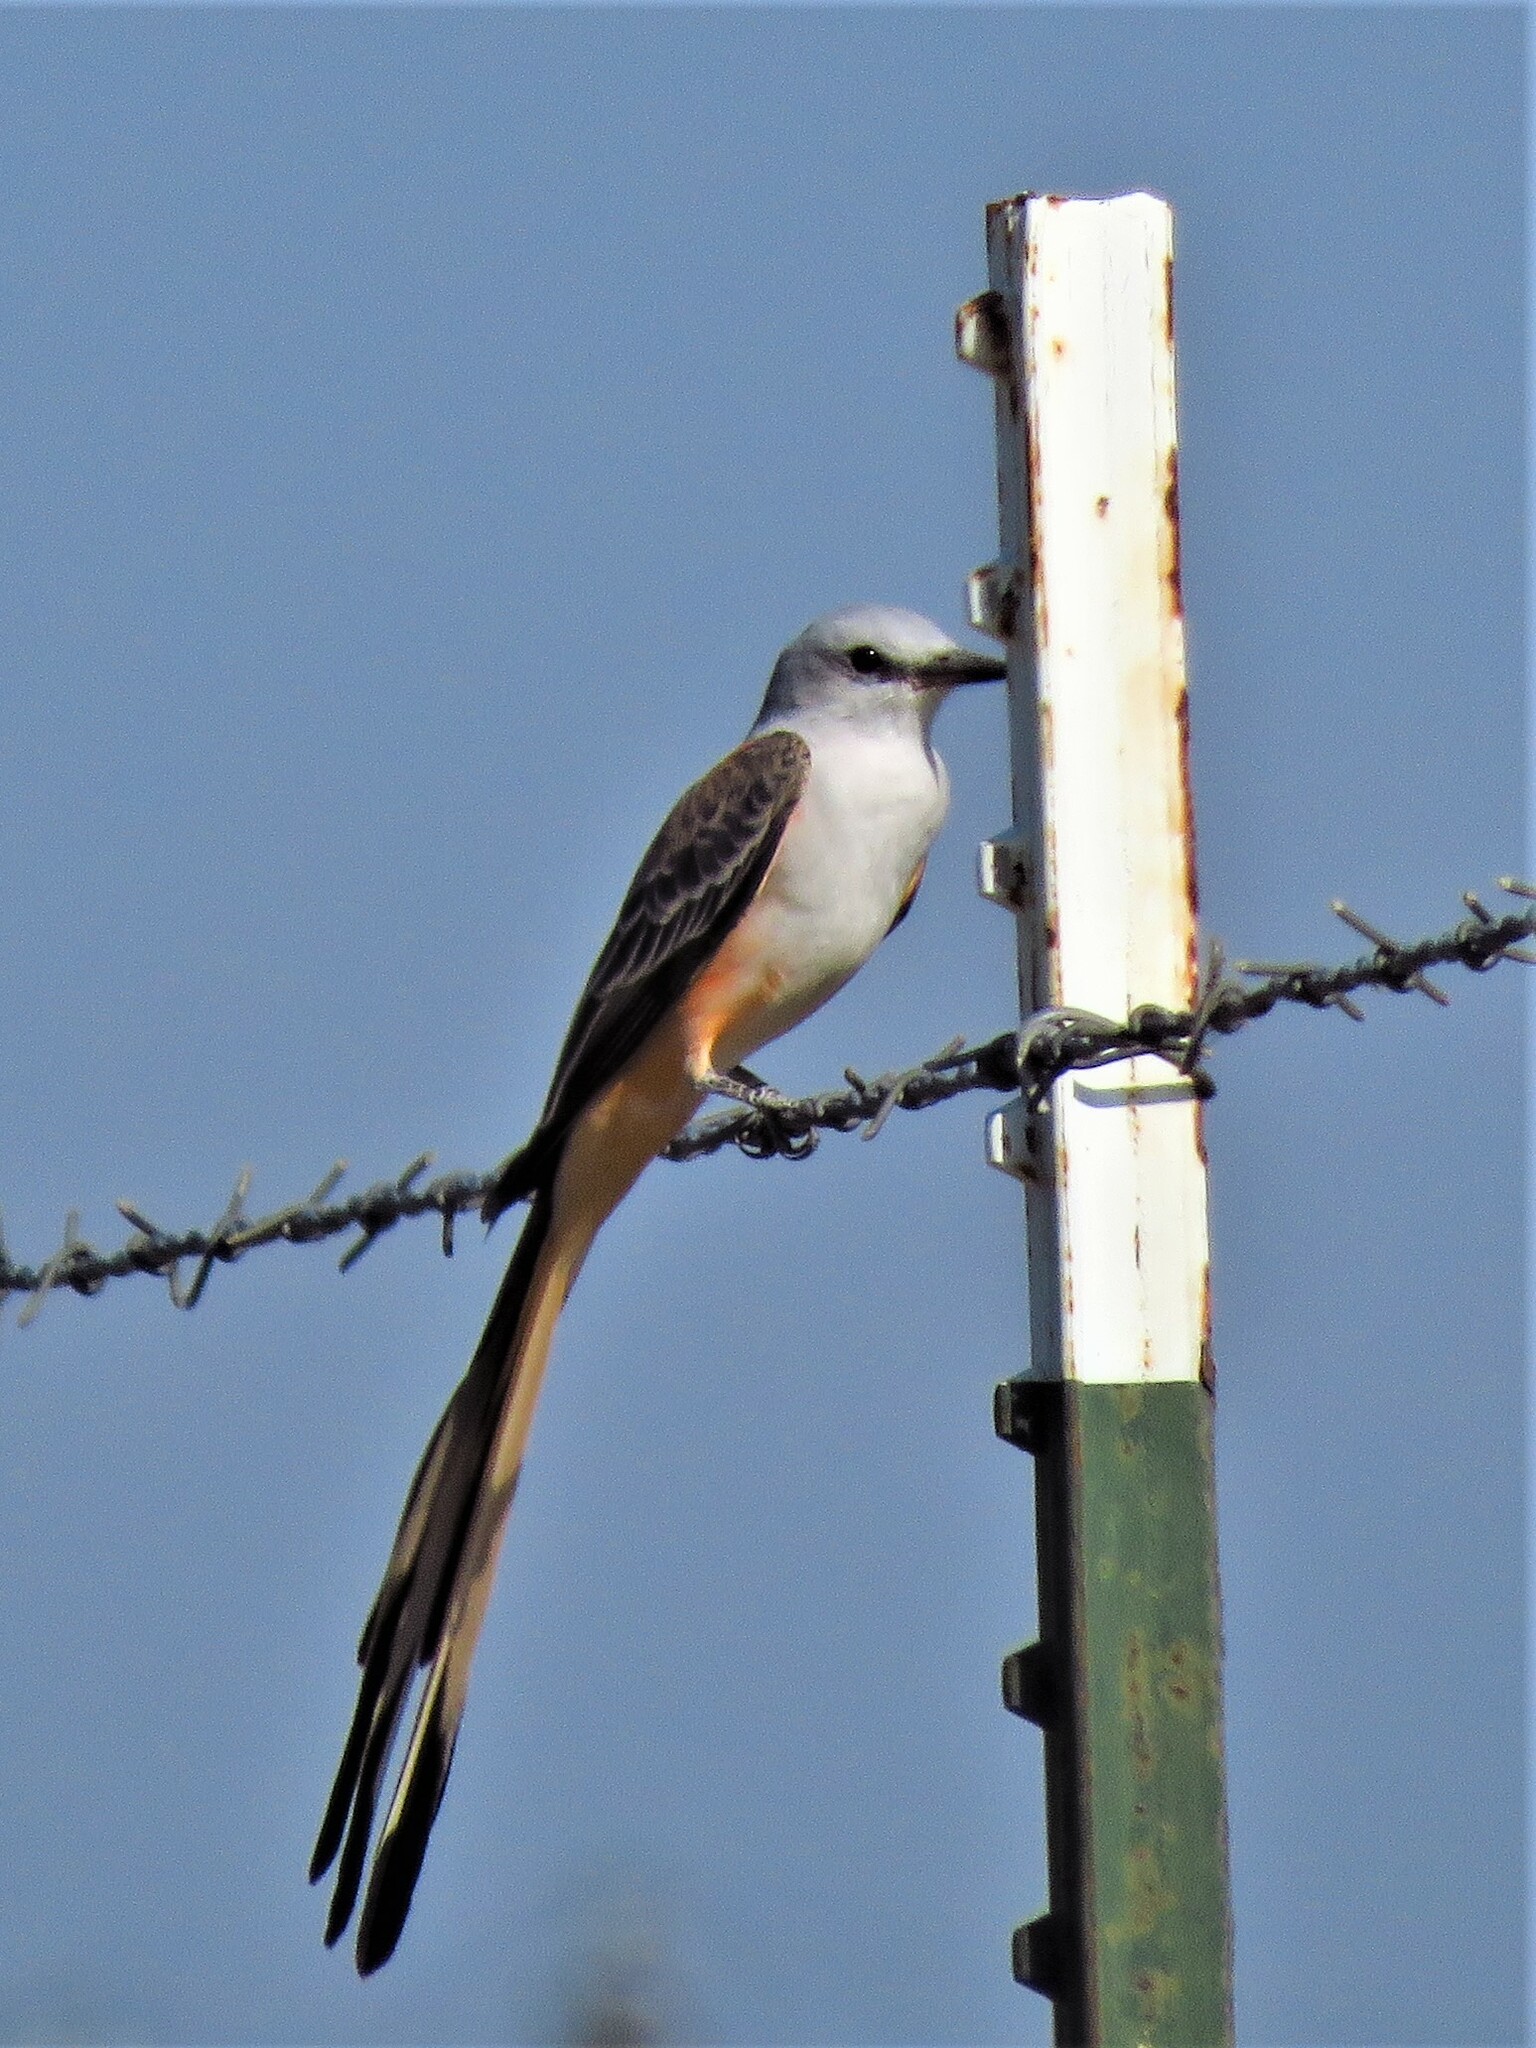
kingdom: Animalia
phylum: Chordata
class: Aves
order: Passeriformes
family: Tyrannidae
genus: Tyrannus
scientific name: Tyrannus forficatus
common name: Scissor-tailed flycatcher
